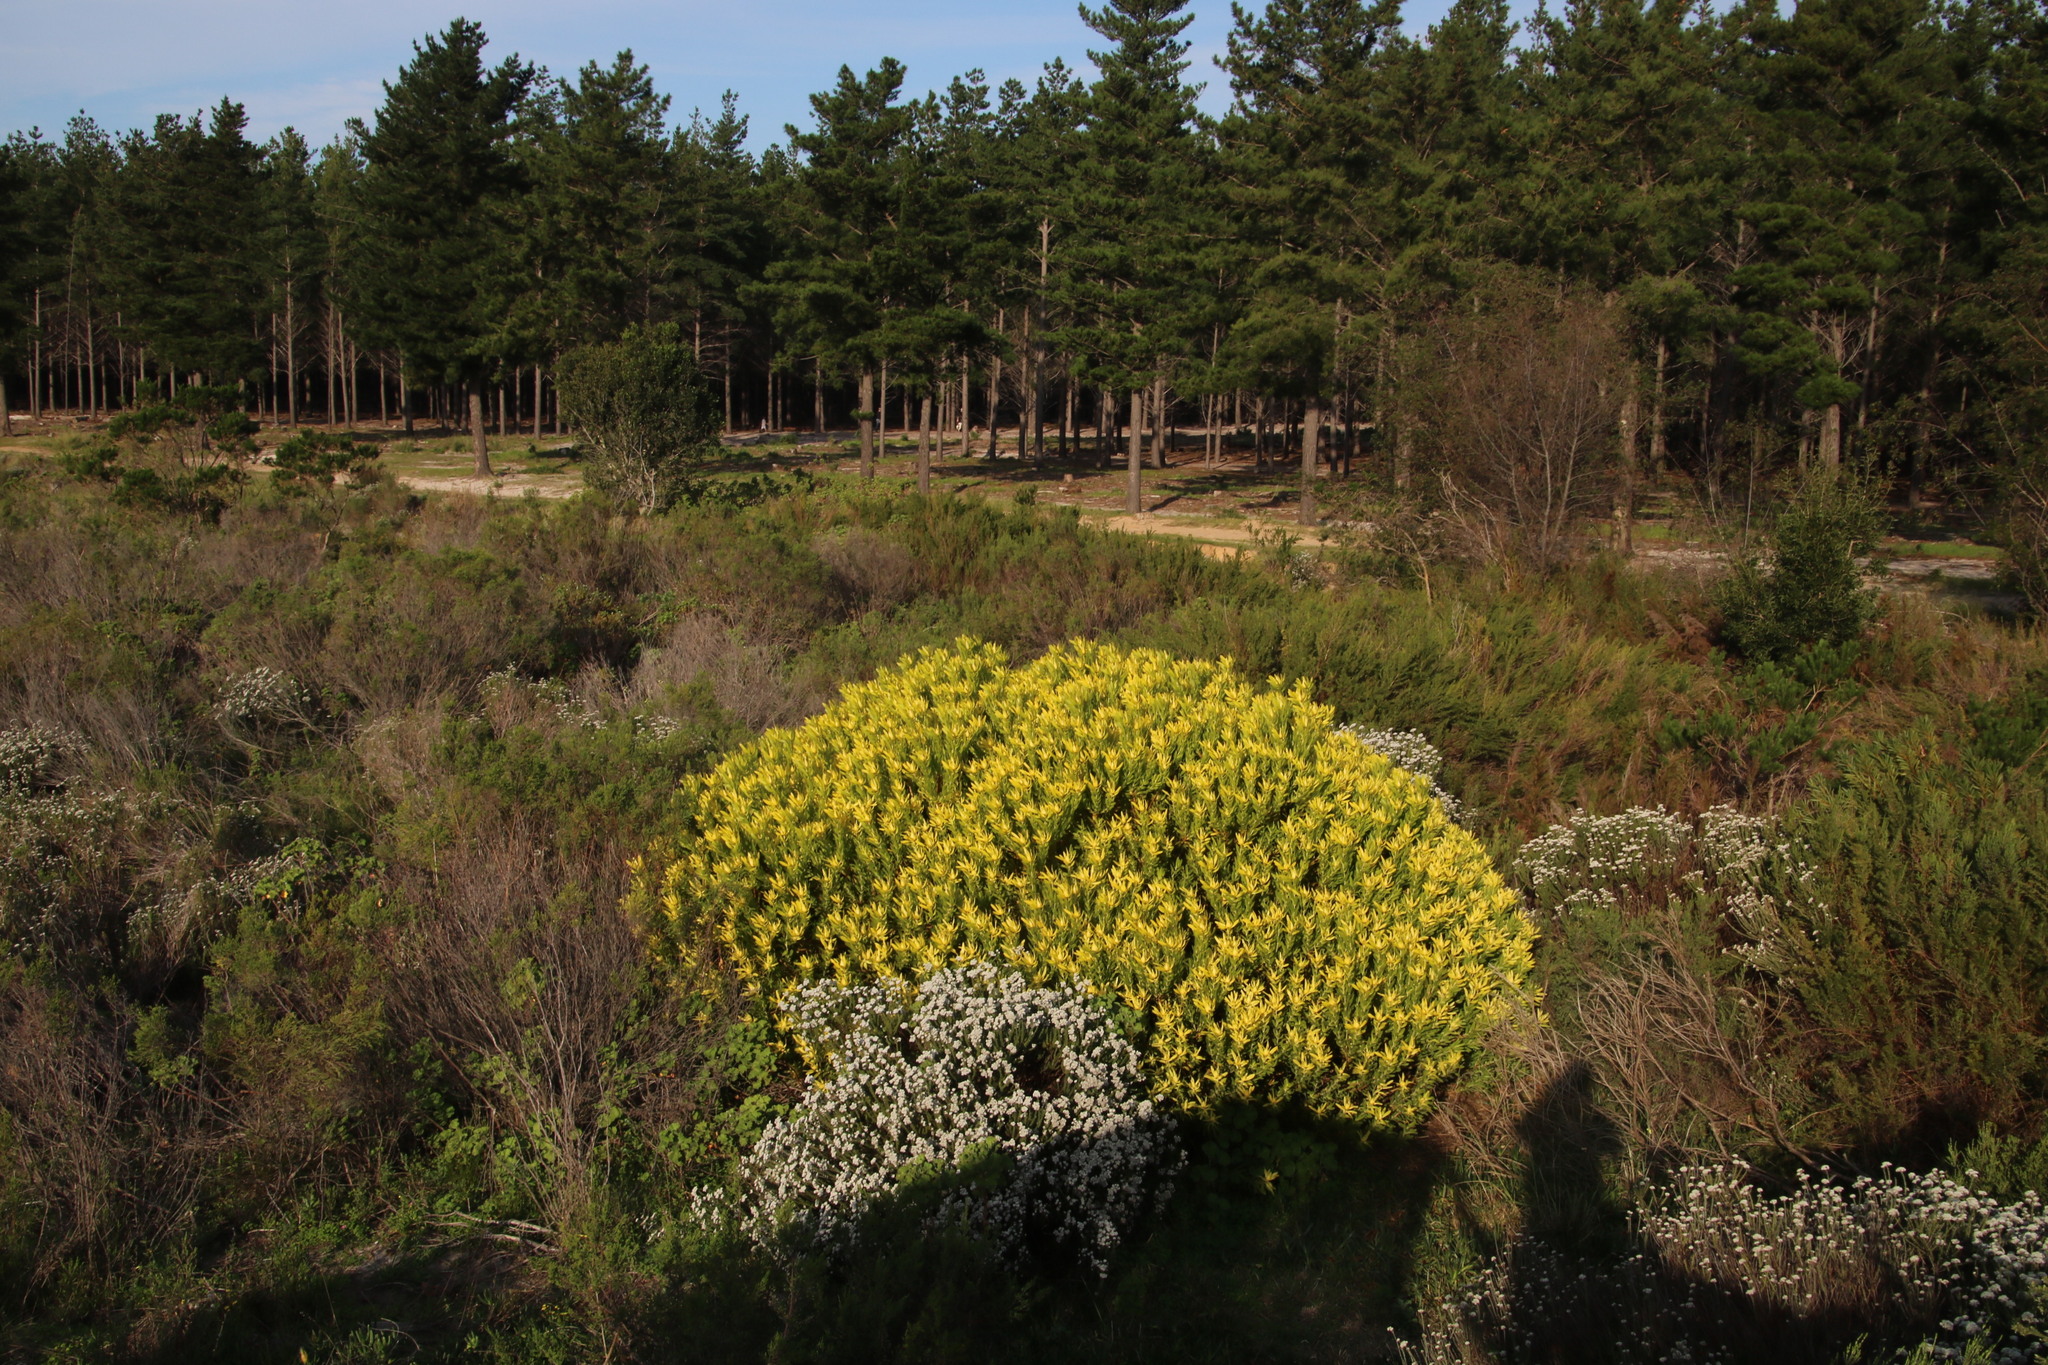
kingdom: Plantae
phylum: Tracheophyta
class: Magnoliopsida
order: Proteales
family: Proteaceae
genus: Leucadendron
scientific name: Leucadendron laureolum
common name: Golden sunshinebush
